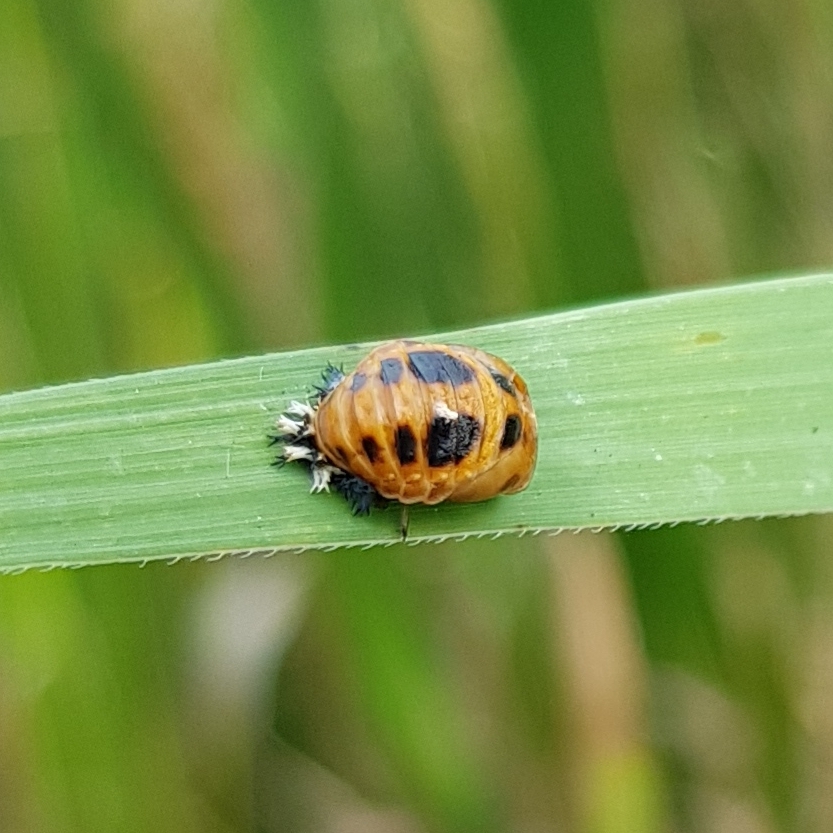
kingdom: Animalia
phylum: Arthropoda
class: Insecta
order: Coleoptera
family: Coccinellidae
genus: Harmonia
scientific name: Harmonia axyridis
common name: Harlequin ladybird
